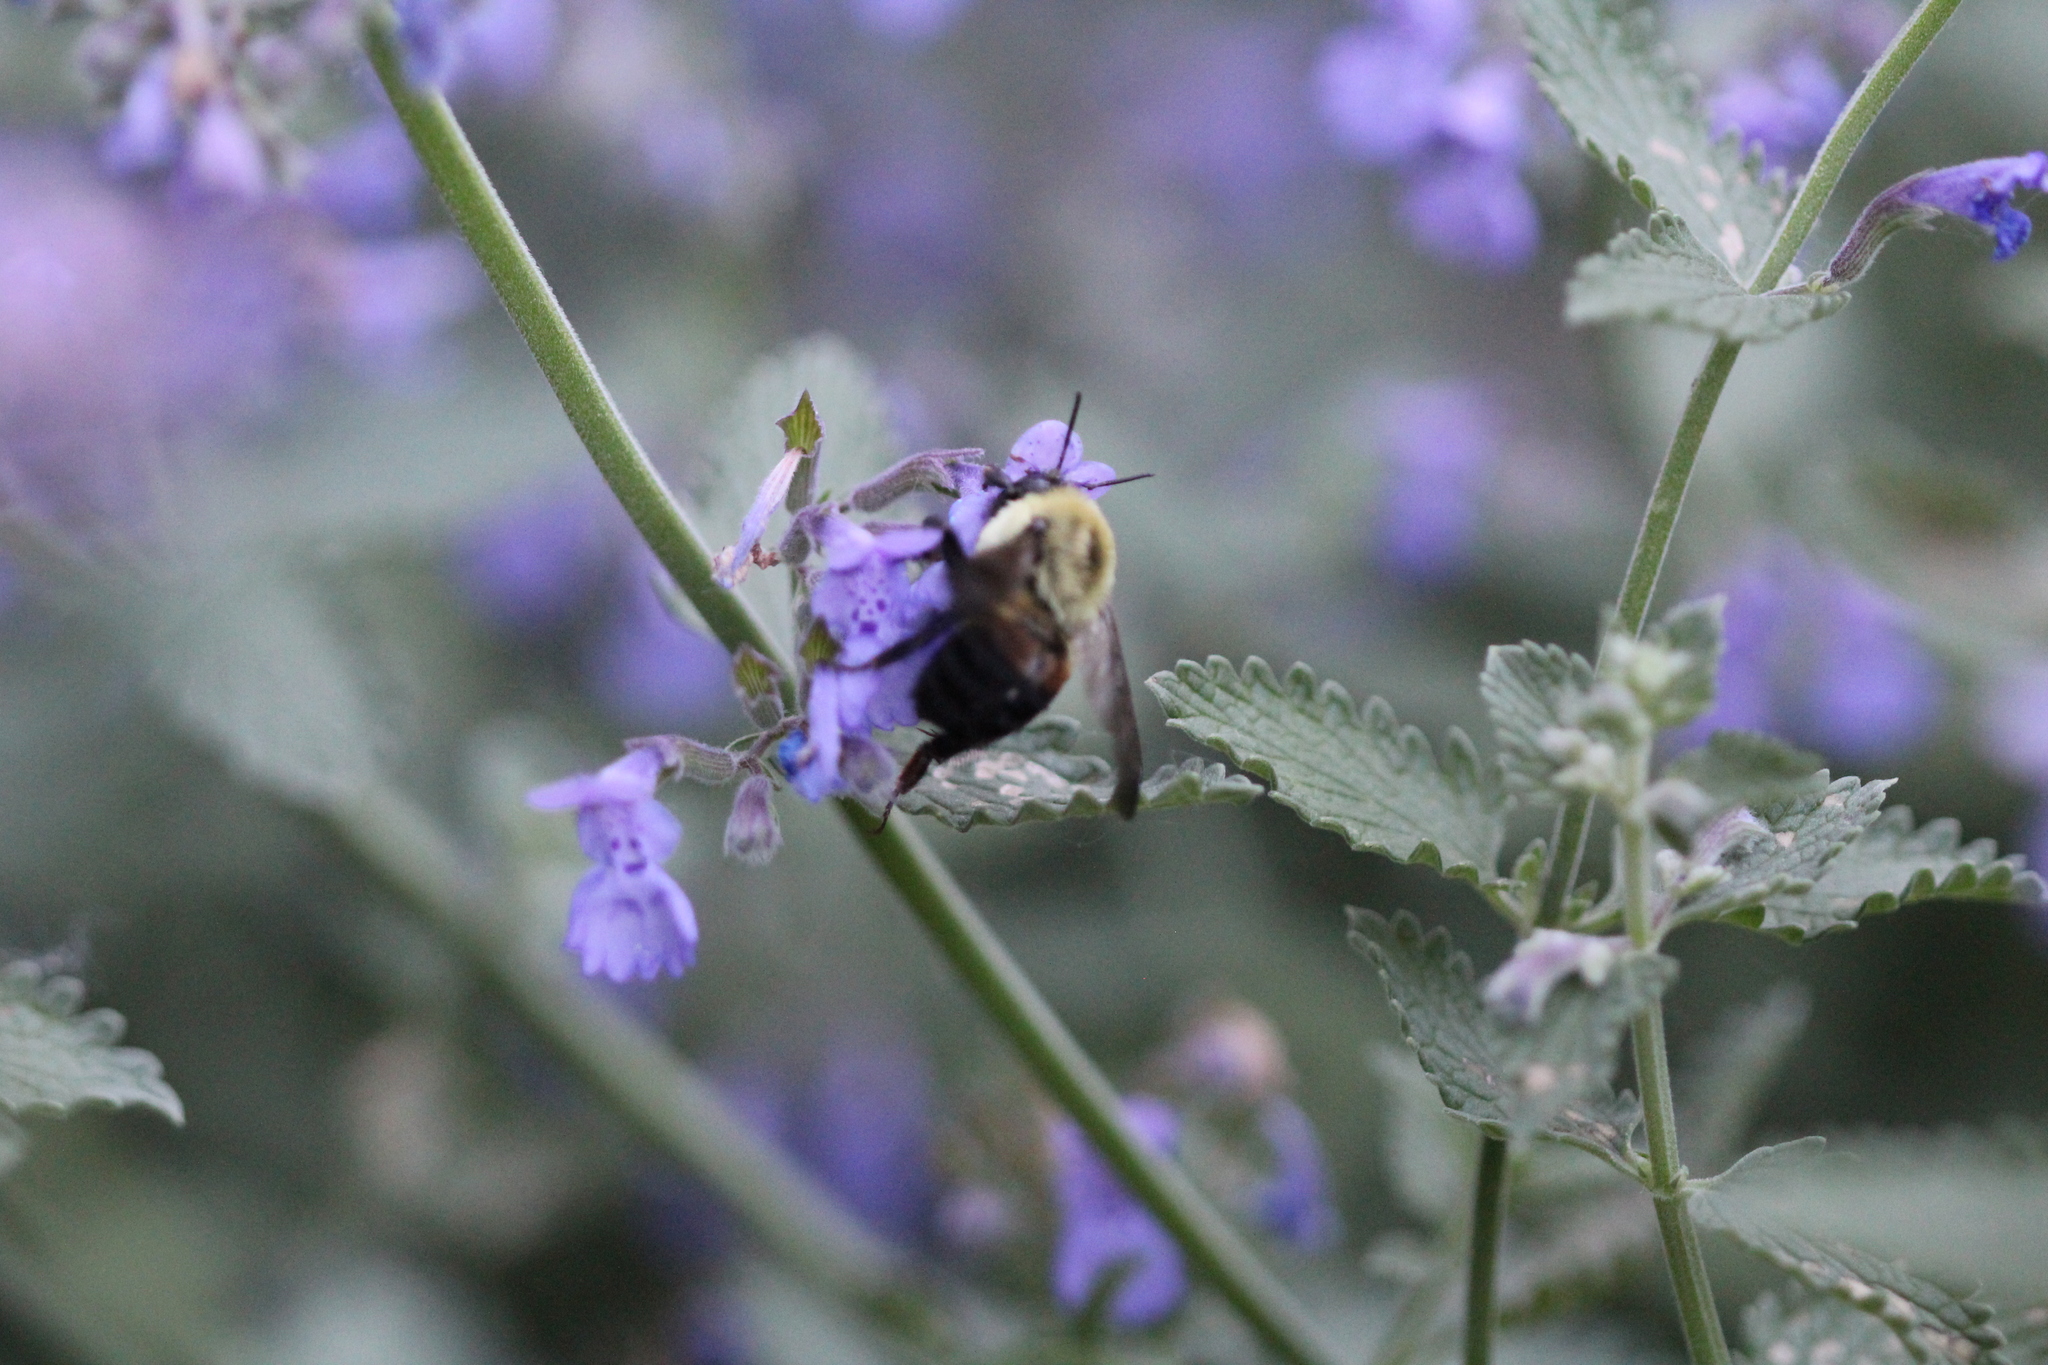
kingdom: Animalia
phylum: Arthropoda
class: Insecta
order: Hymenoptera
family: Apidae
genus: Bombus
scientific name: Bombus griseocollis
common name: Brown-belted bumble bee
